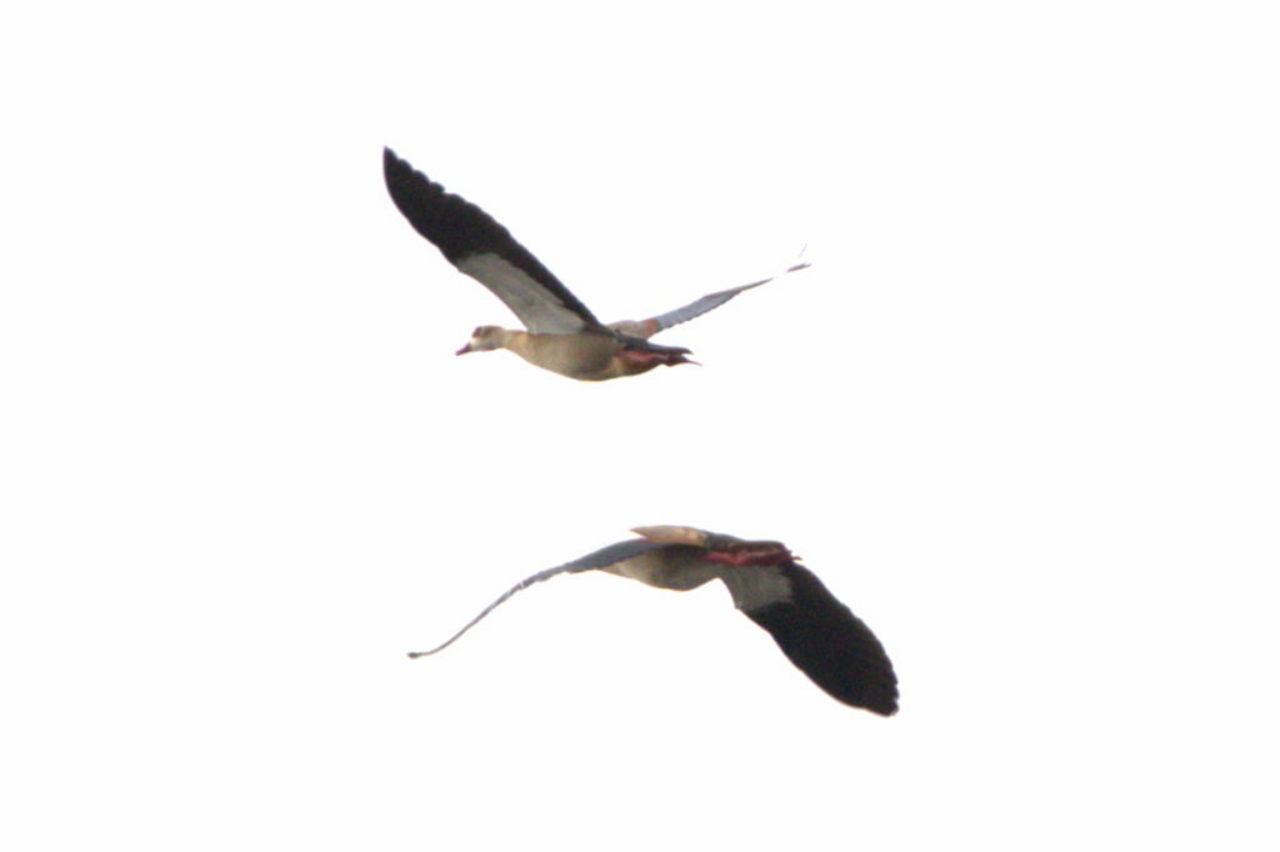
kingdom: Animalia
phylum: Chordata
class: Aves
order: Anseriformes
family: Anatidae
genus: Alopochen
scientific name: Alopochen aegyptiaca
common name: Egyptian goose
